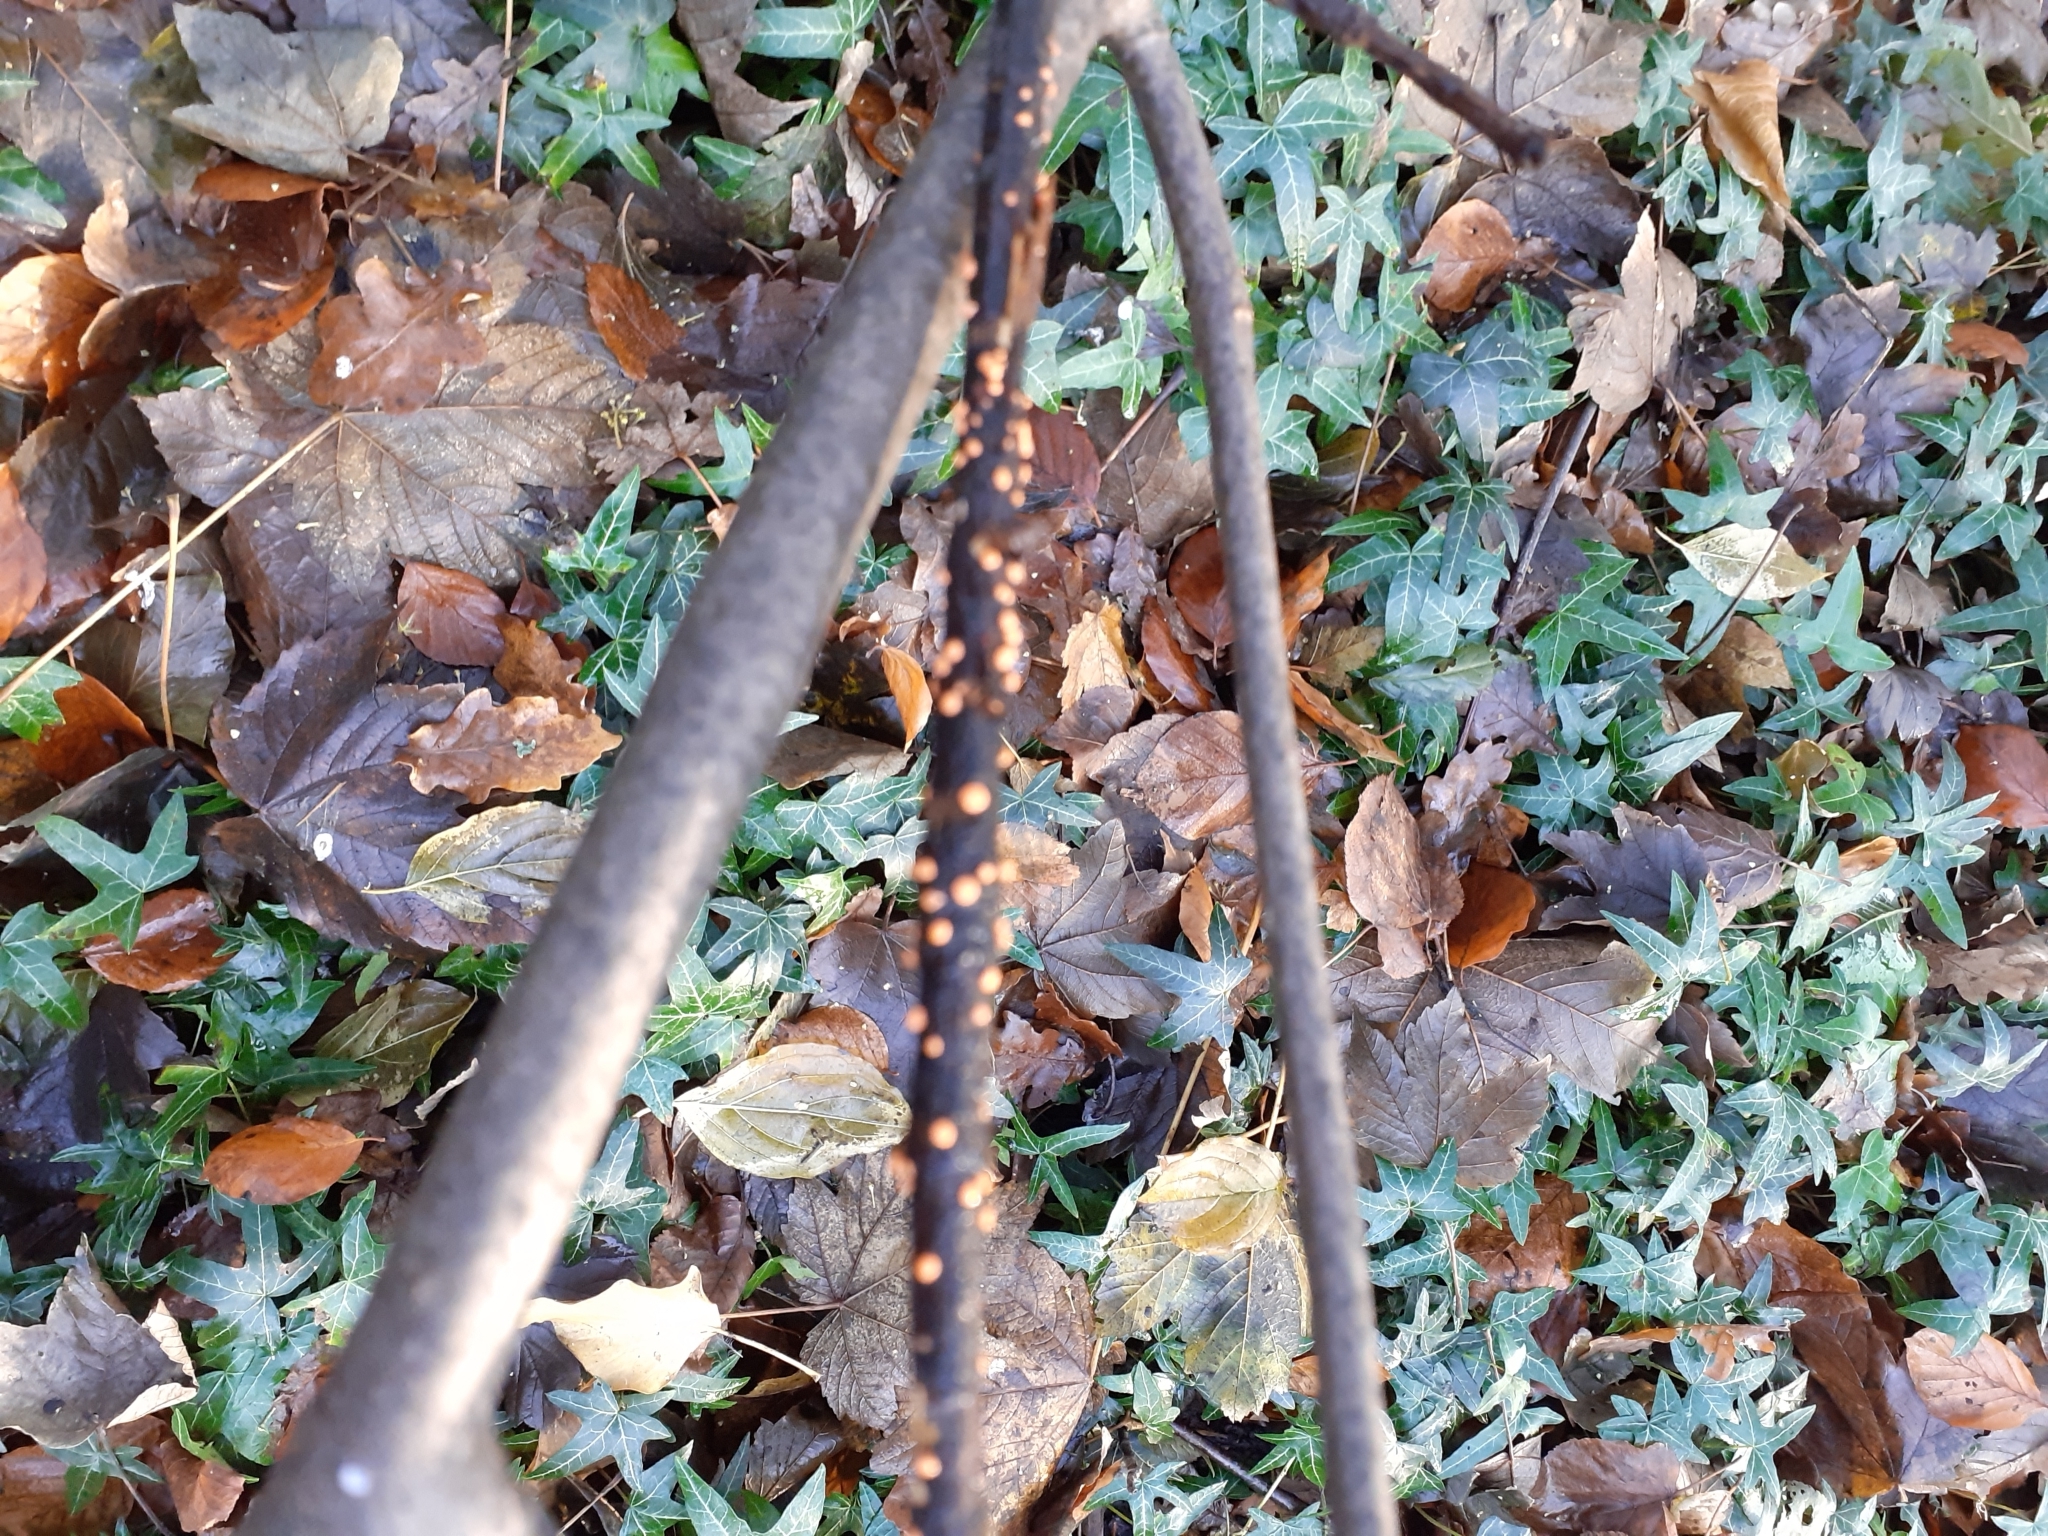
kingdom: Fungi
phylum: Ascomycota
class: Sordariomycetes
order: Hypocreales
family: Nectriaceae
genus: Nectria
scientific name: Nectria cinnabarina
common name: Coral spot
